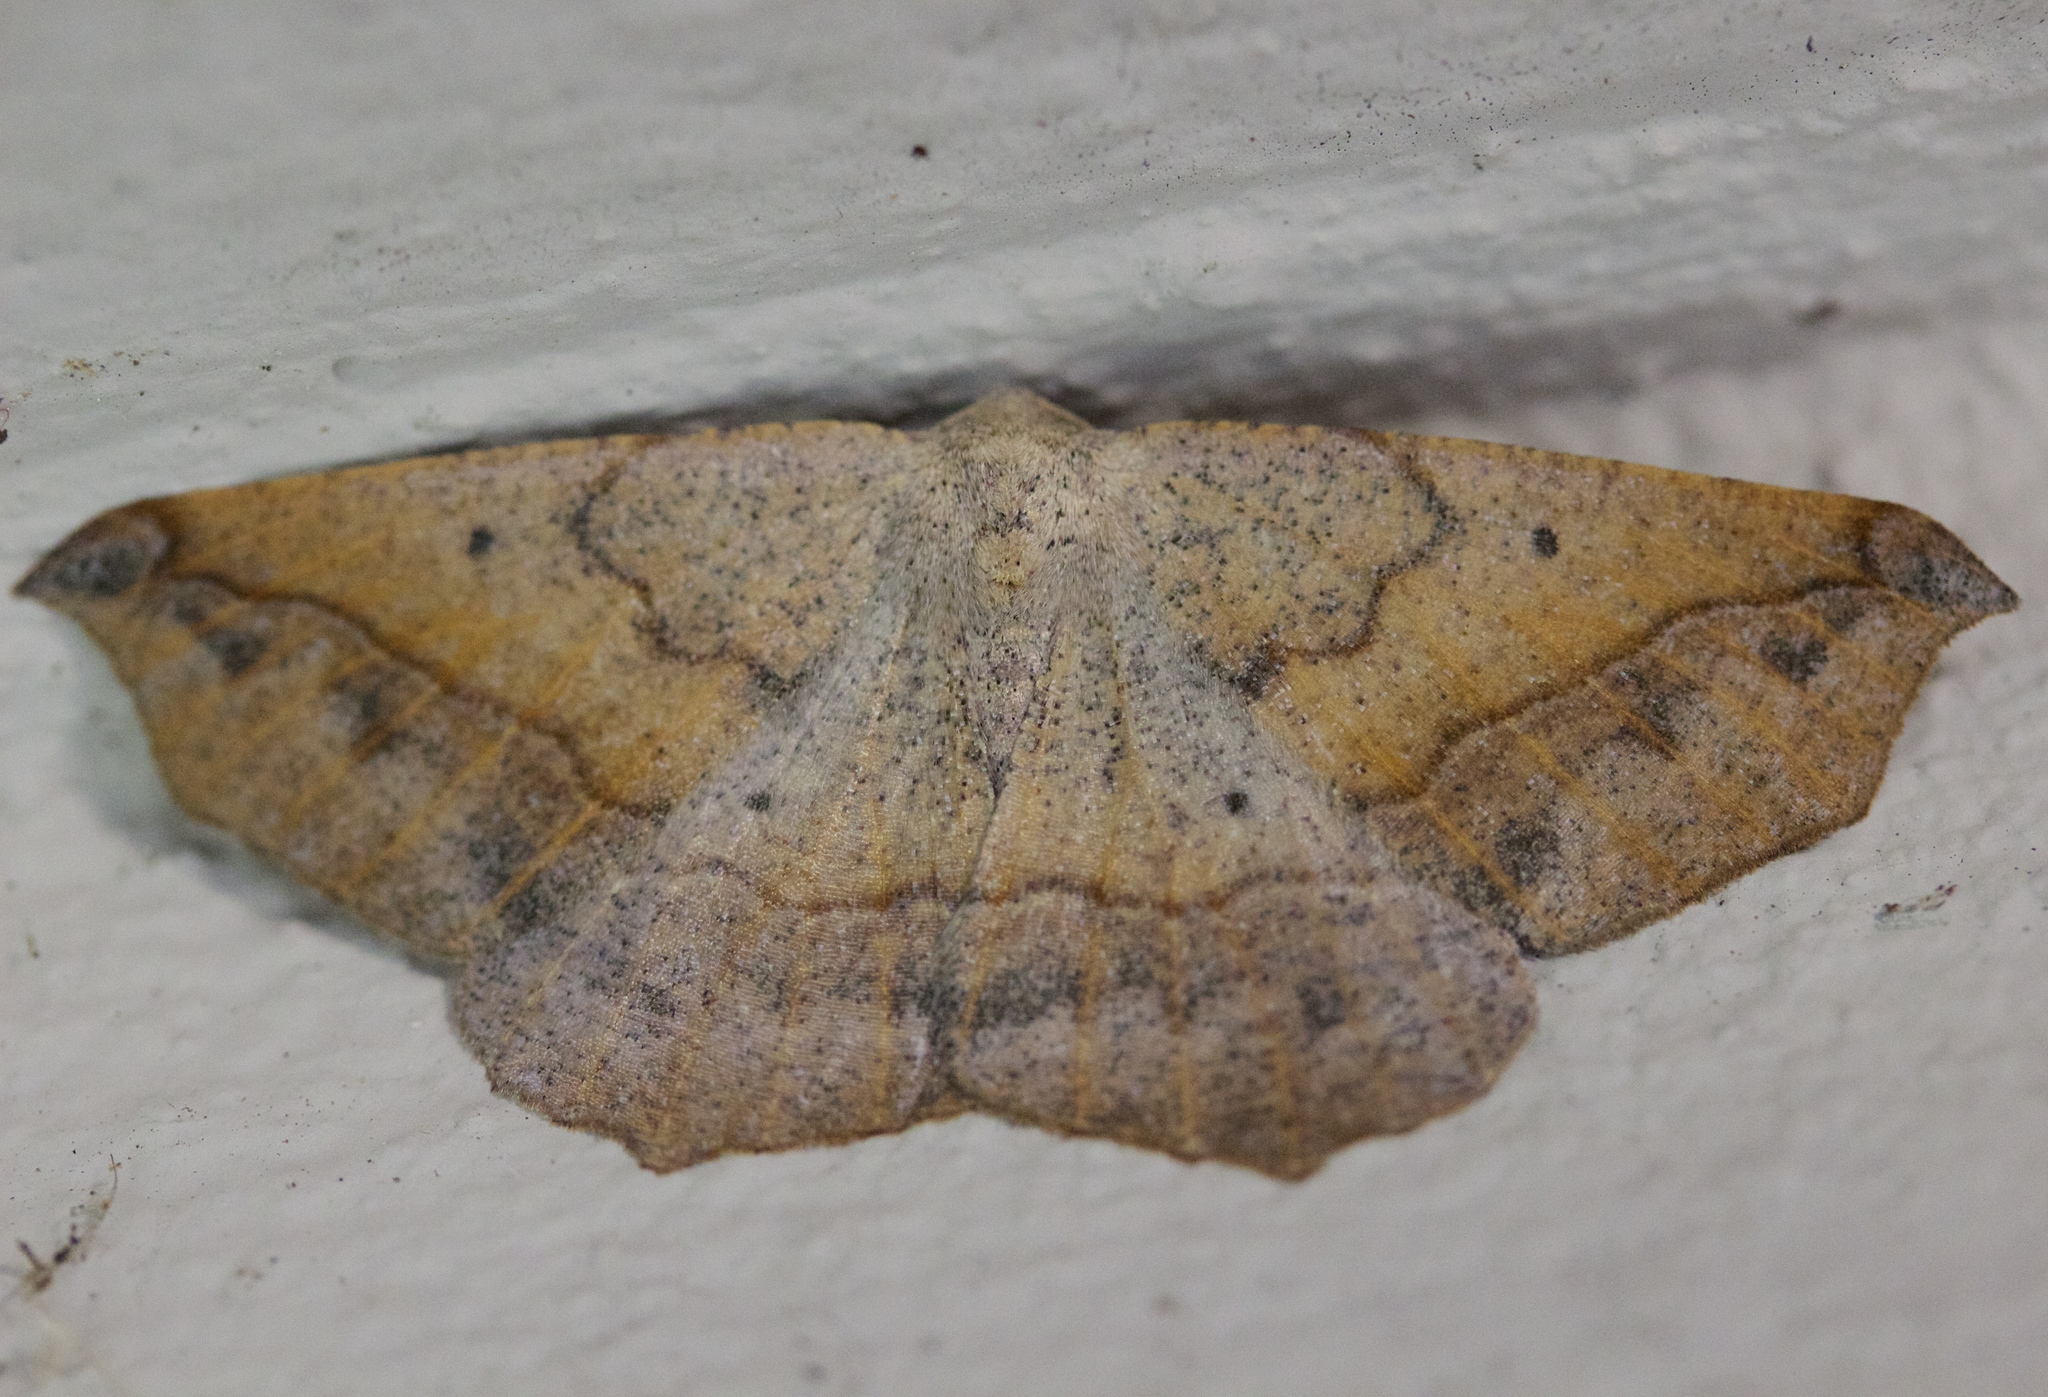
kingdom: Animalia
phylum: Arthropoda
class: Insecta
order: Lepidoptera
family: Geometridae
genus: Prochoerodes
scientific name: Prochoerodes forficaria
